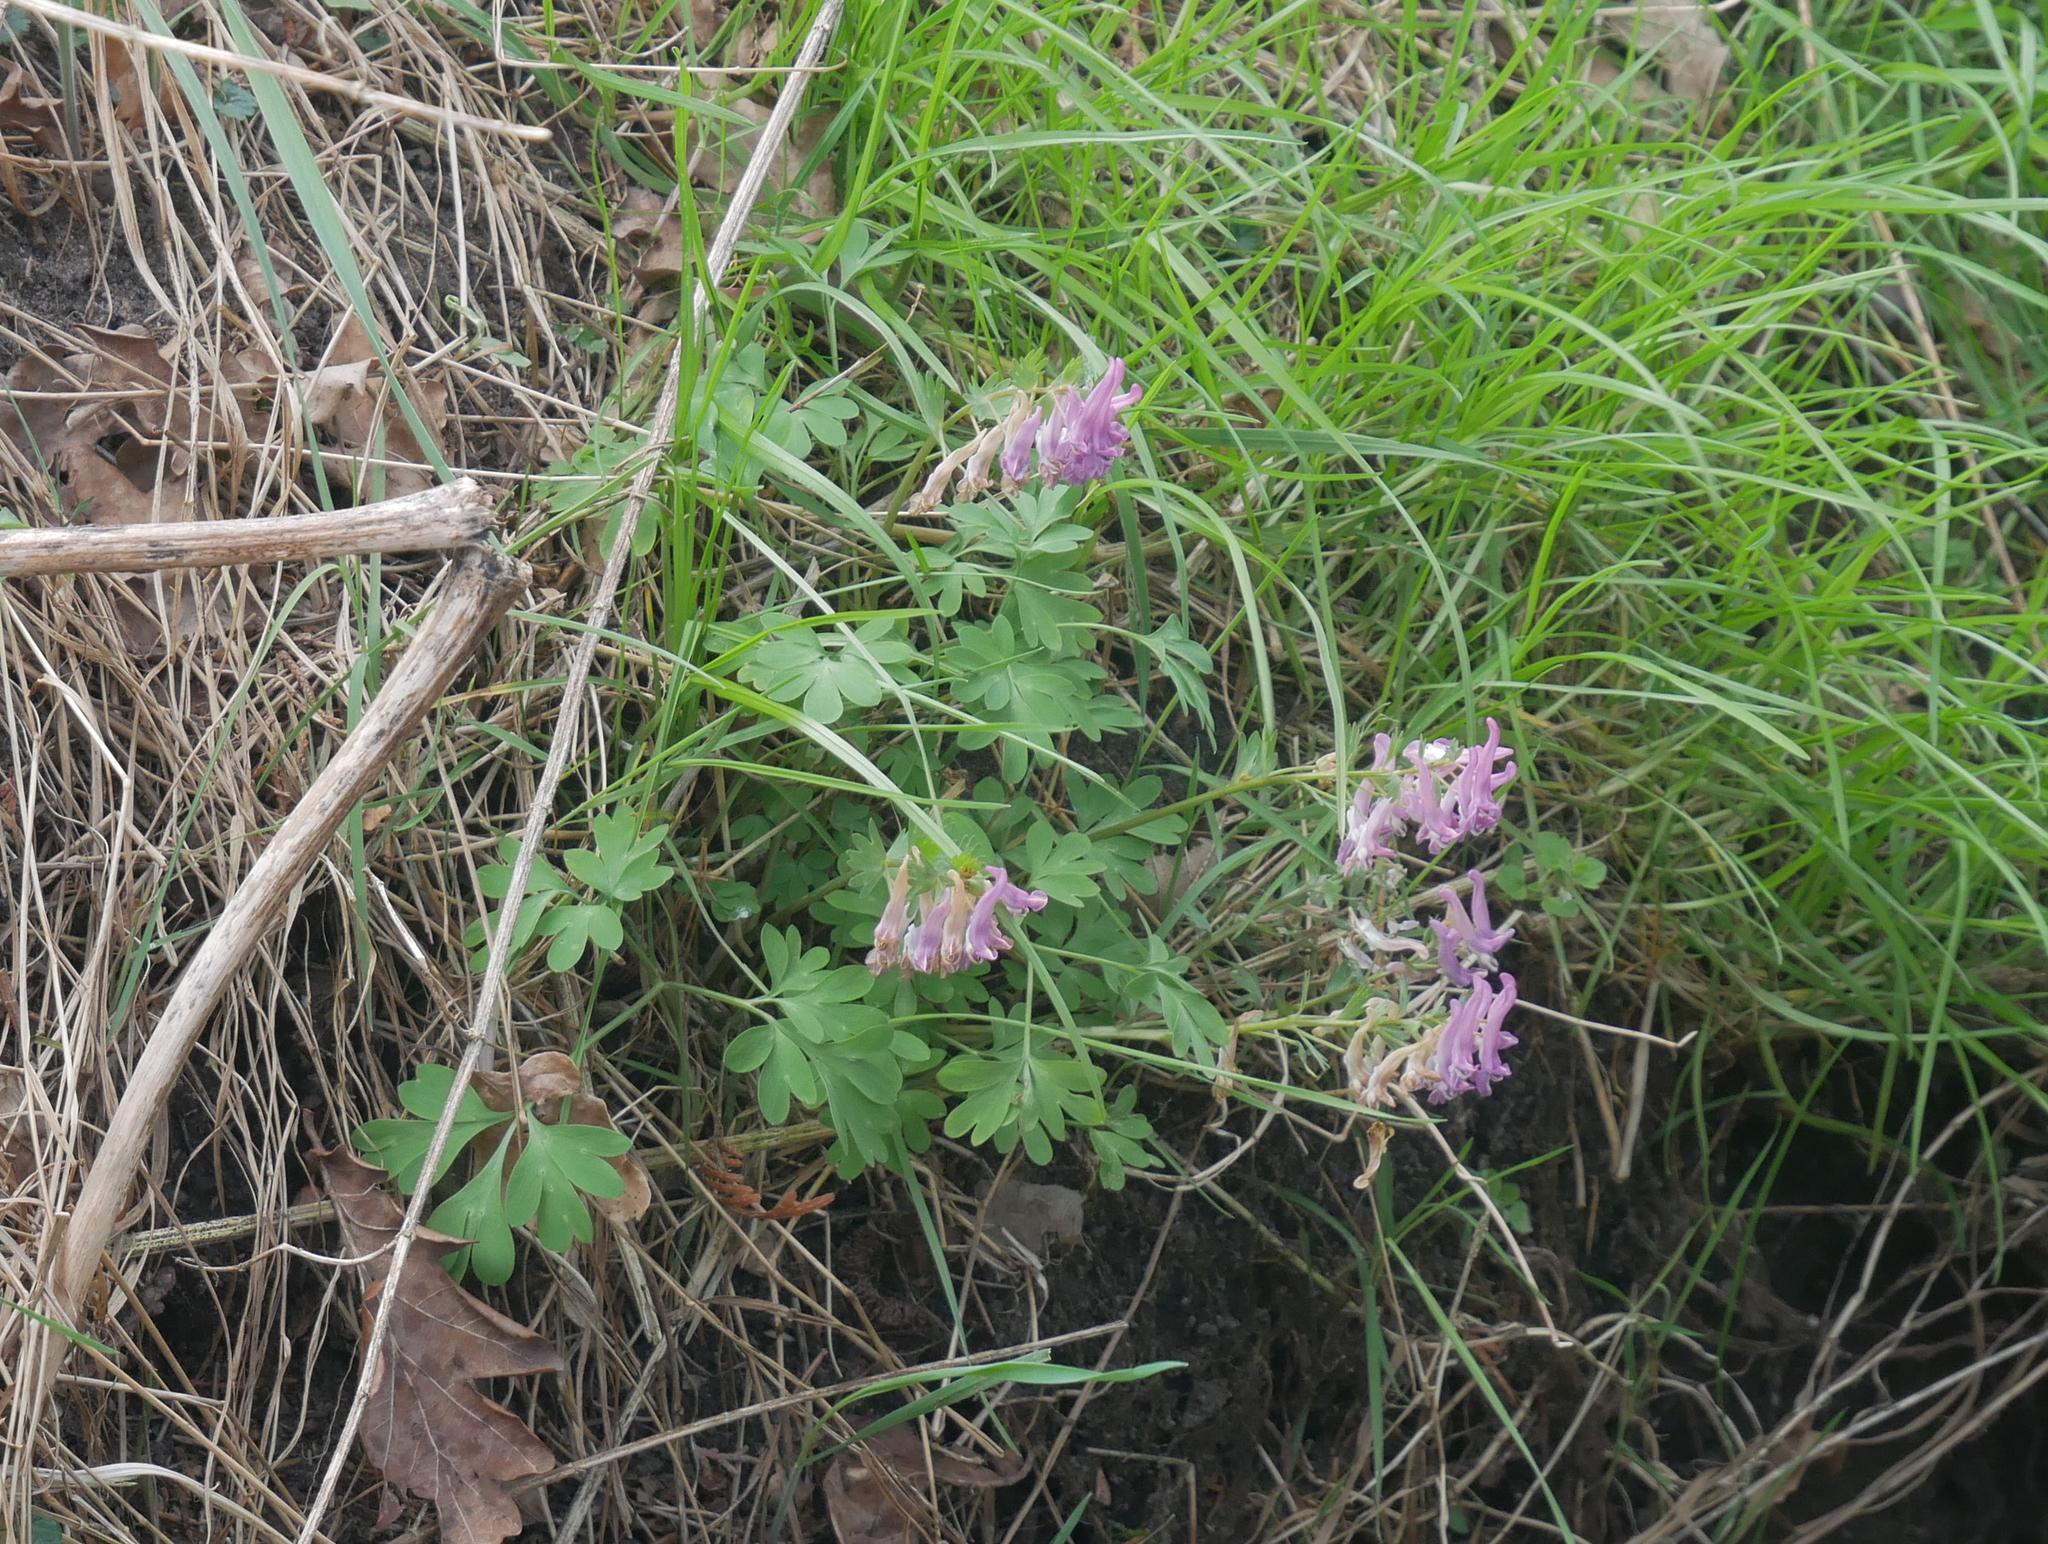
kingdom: Plantae
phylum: Tracheophyta
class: Magnoliopsida
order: Ranunculales
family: Papaveraceae
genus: Corydalis
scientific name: Corydalis solida
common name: Bird-in-a-bush
